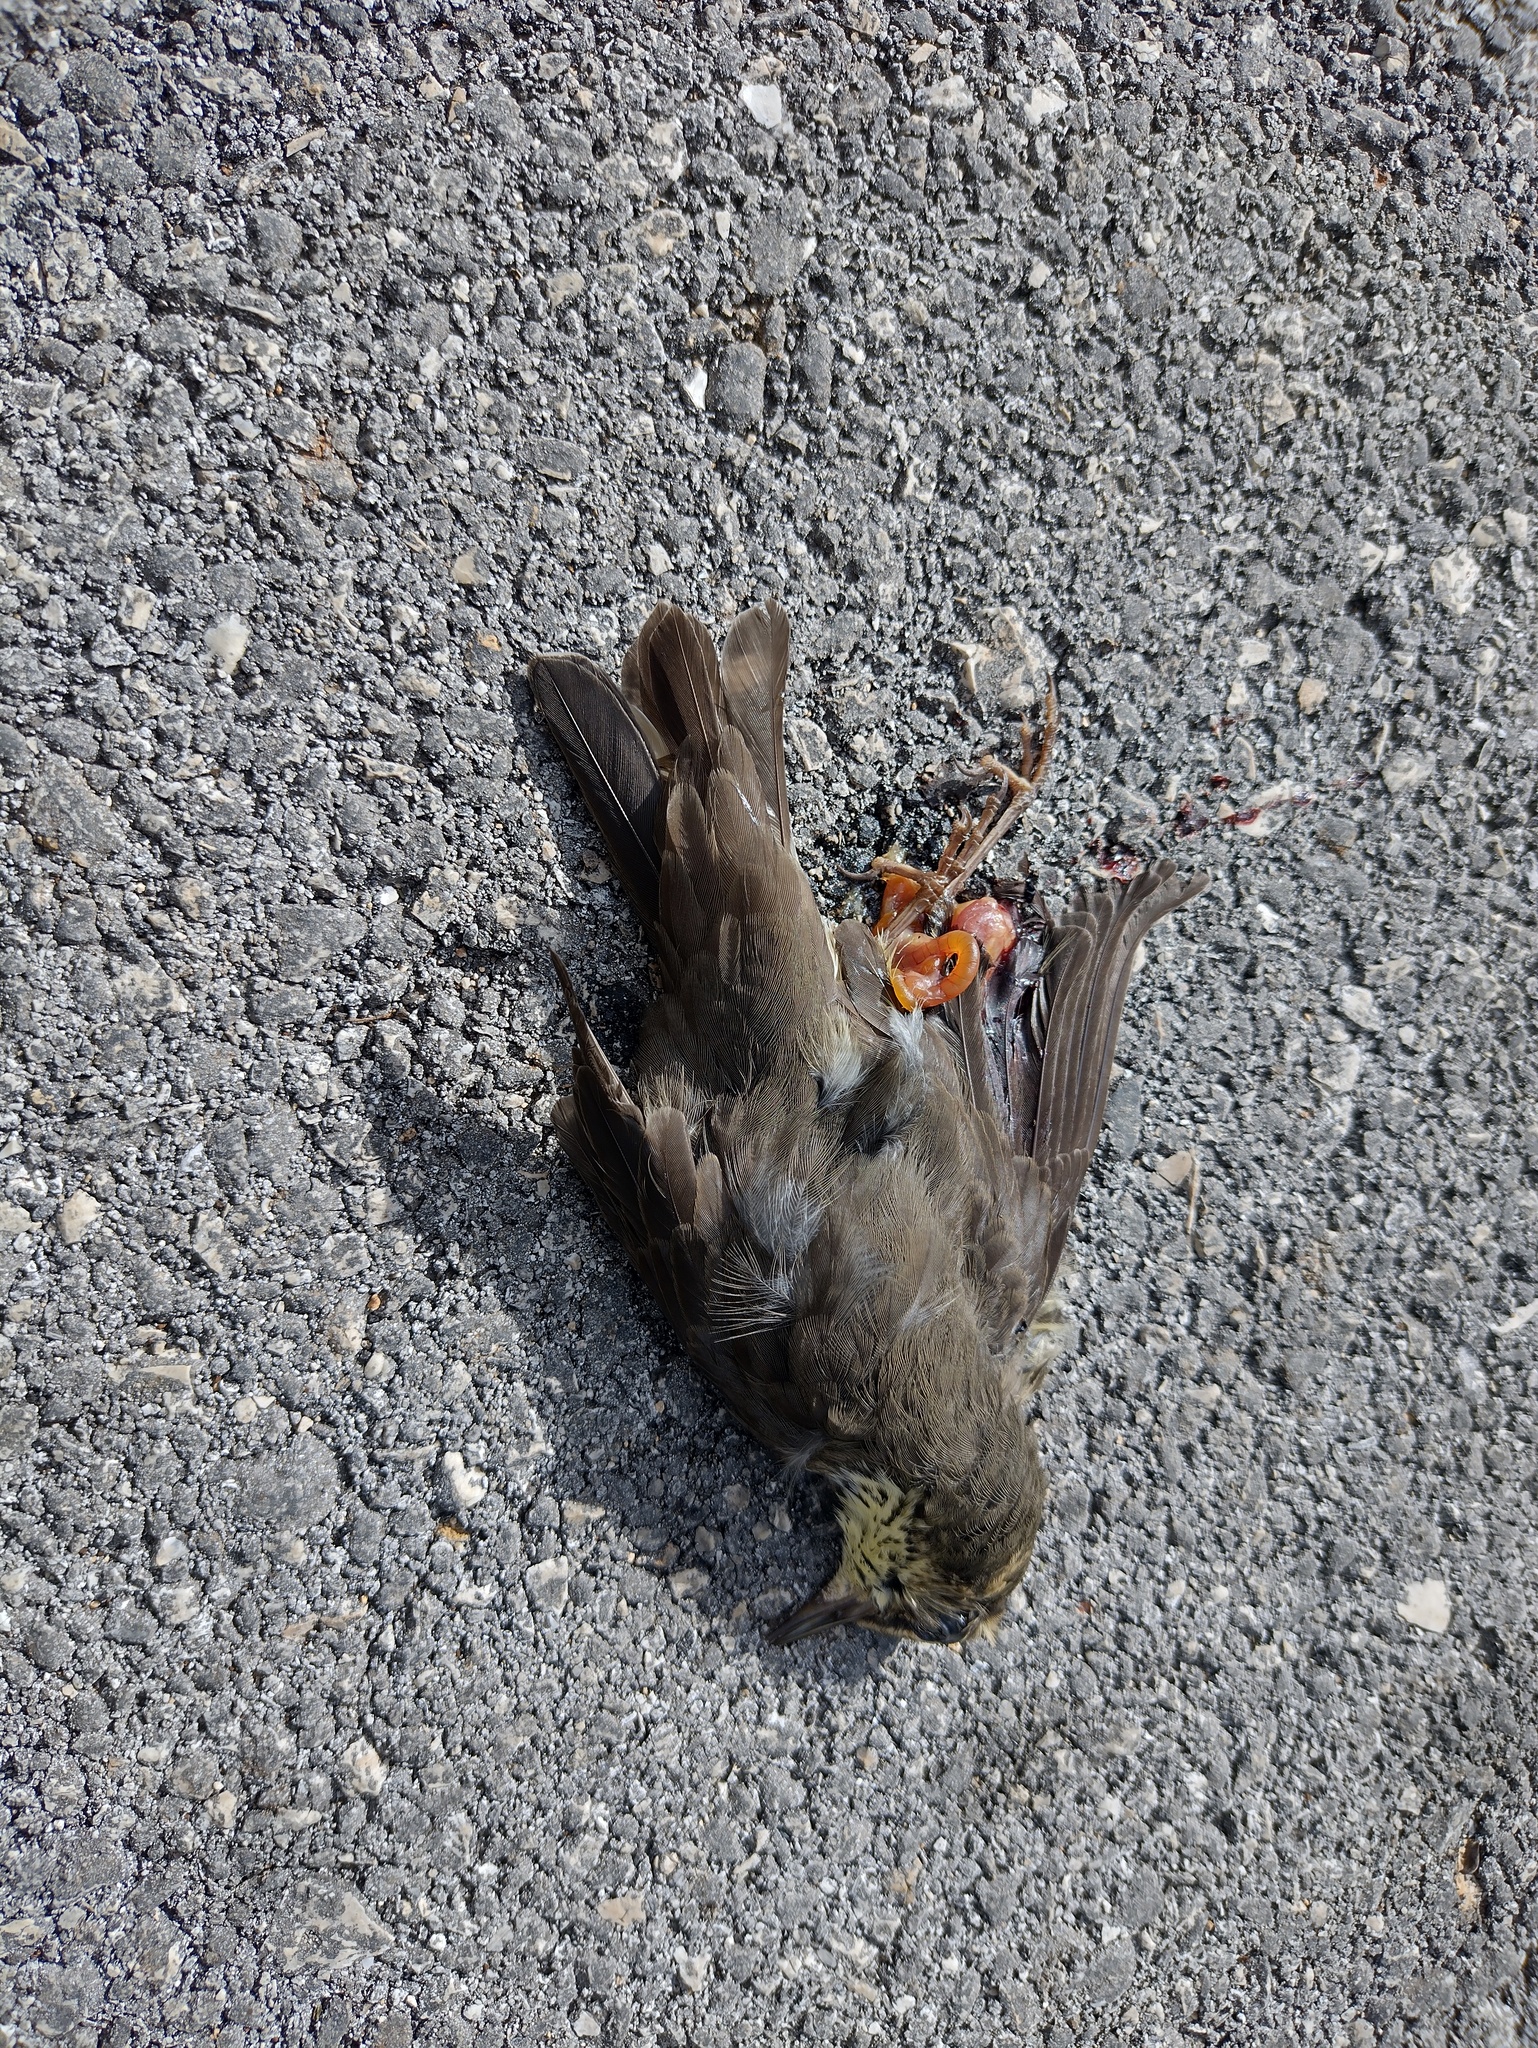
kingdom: Animalia
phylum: Chordata
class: Aves
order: Passeriformes
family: Parulidae
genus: Parkesia
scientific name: Parkesia noveboracensis
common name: Northern waterthrush
